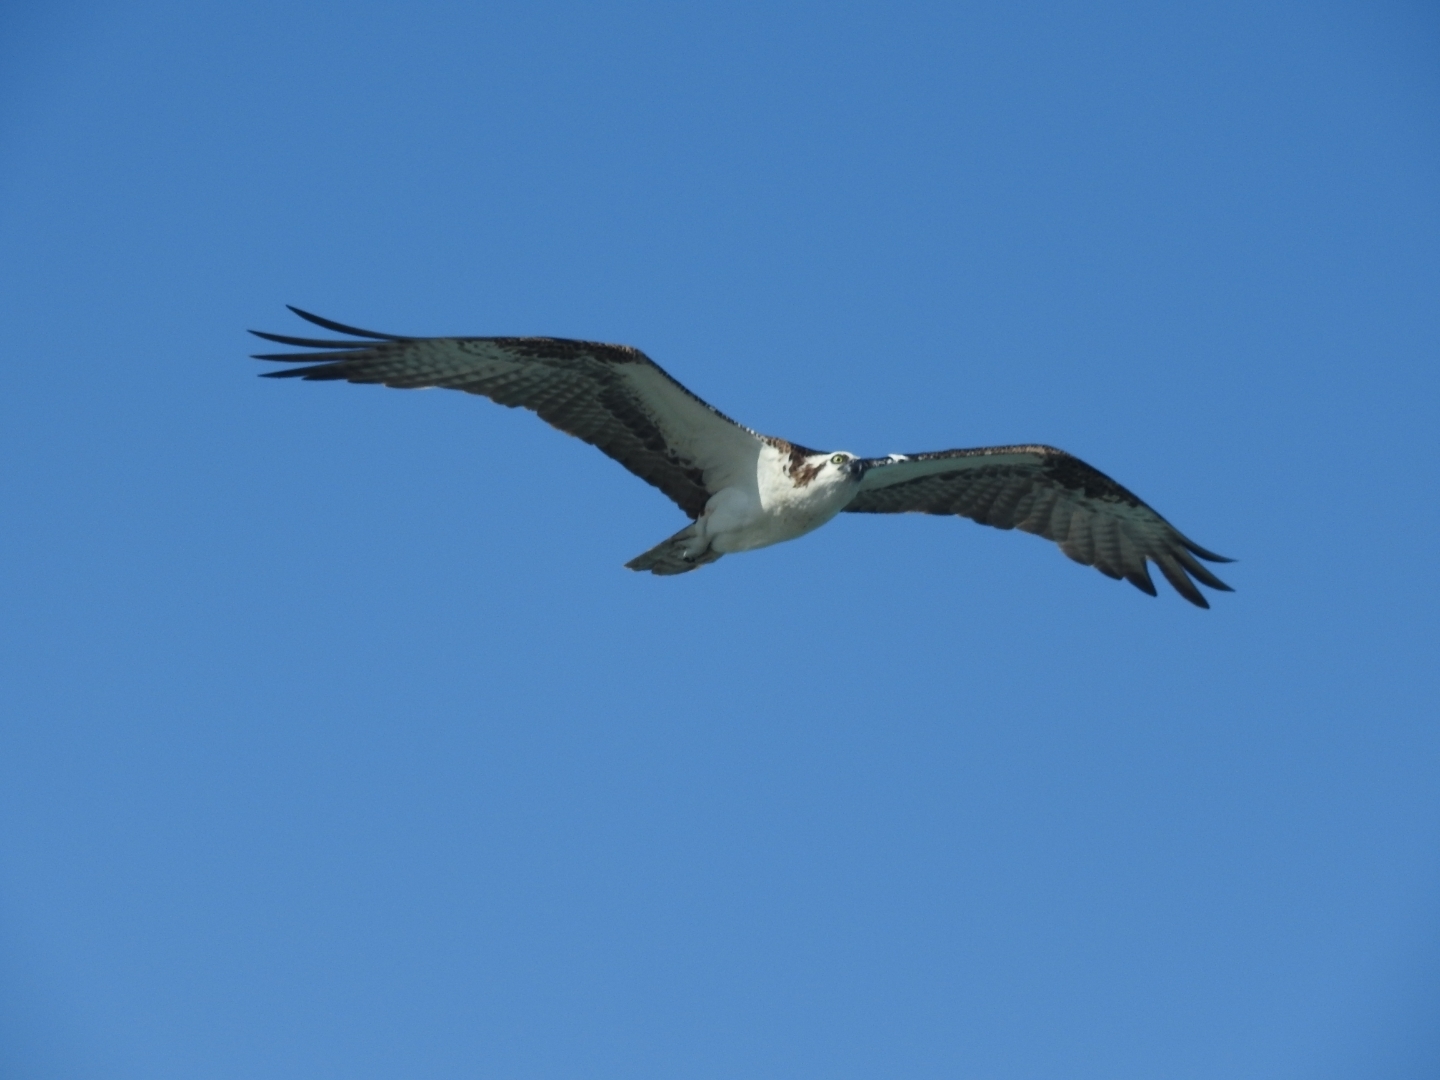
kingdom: Animalia
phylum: Chordata
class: Aves
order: Accipitriformes
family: Pandionidae
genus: Pandion
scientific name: Pandion haliaetus
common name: Osprey
